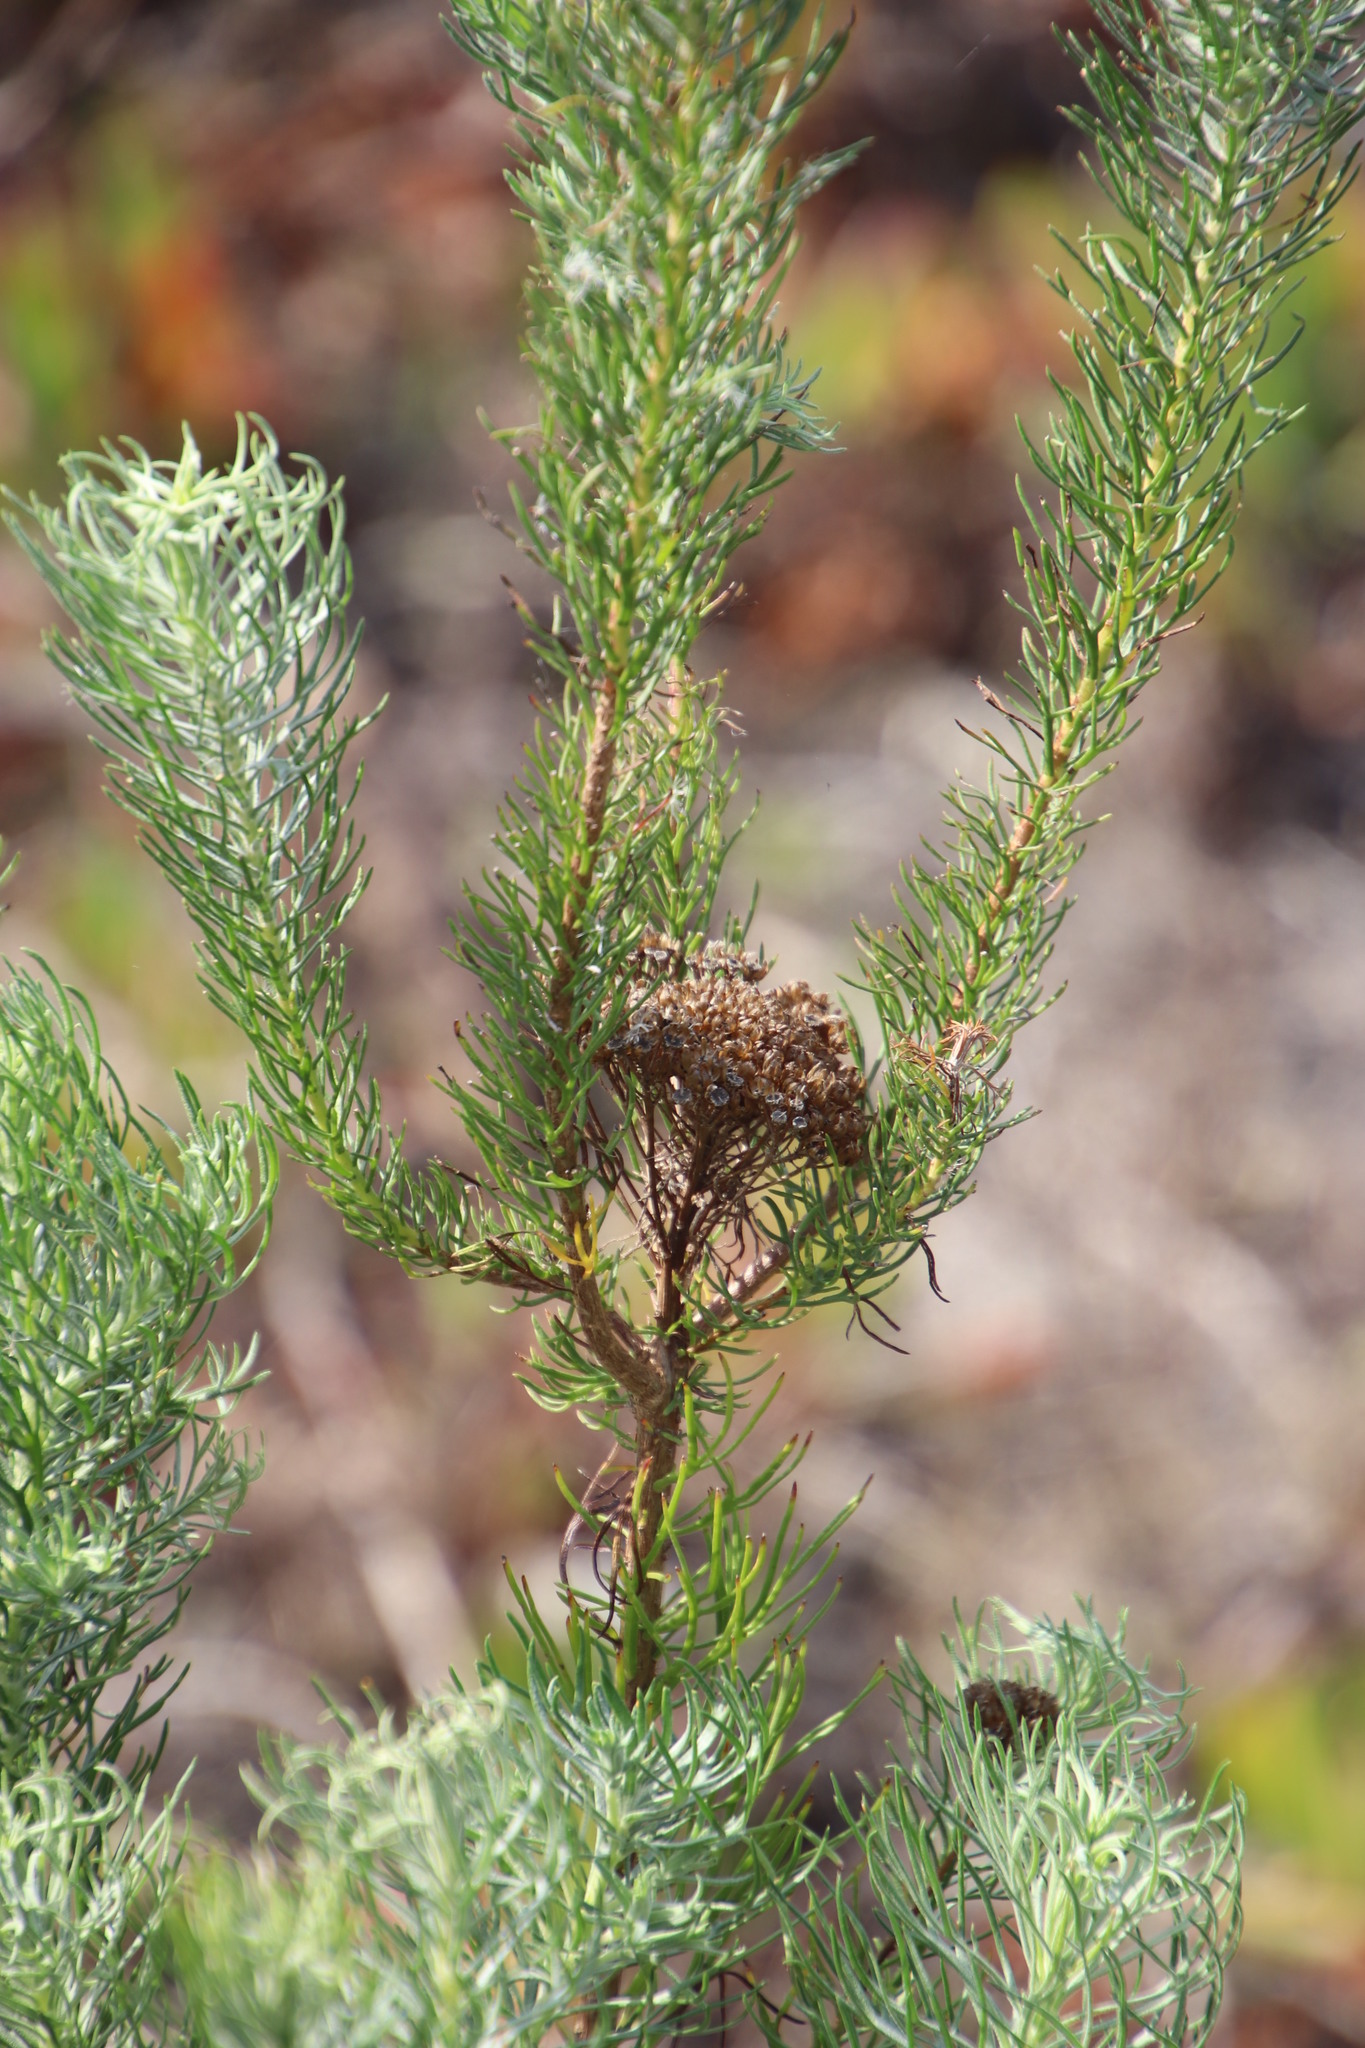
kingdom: Plantae
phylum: Tracheophyta
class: Magnoliopsida
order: Asterales
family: Asteraceae
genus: Athanasia
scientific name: Athanasia crithmifolia
